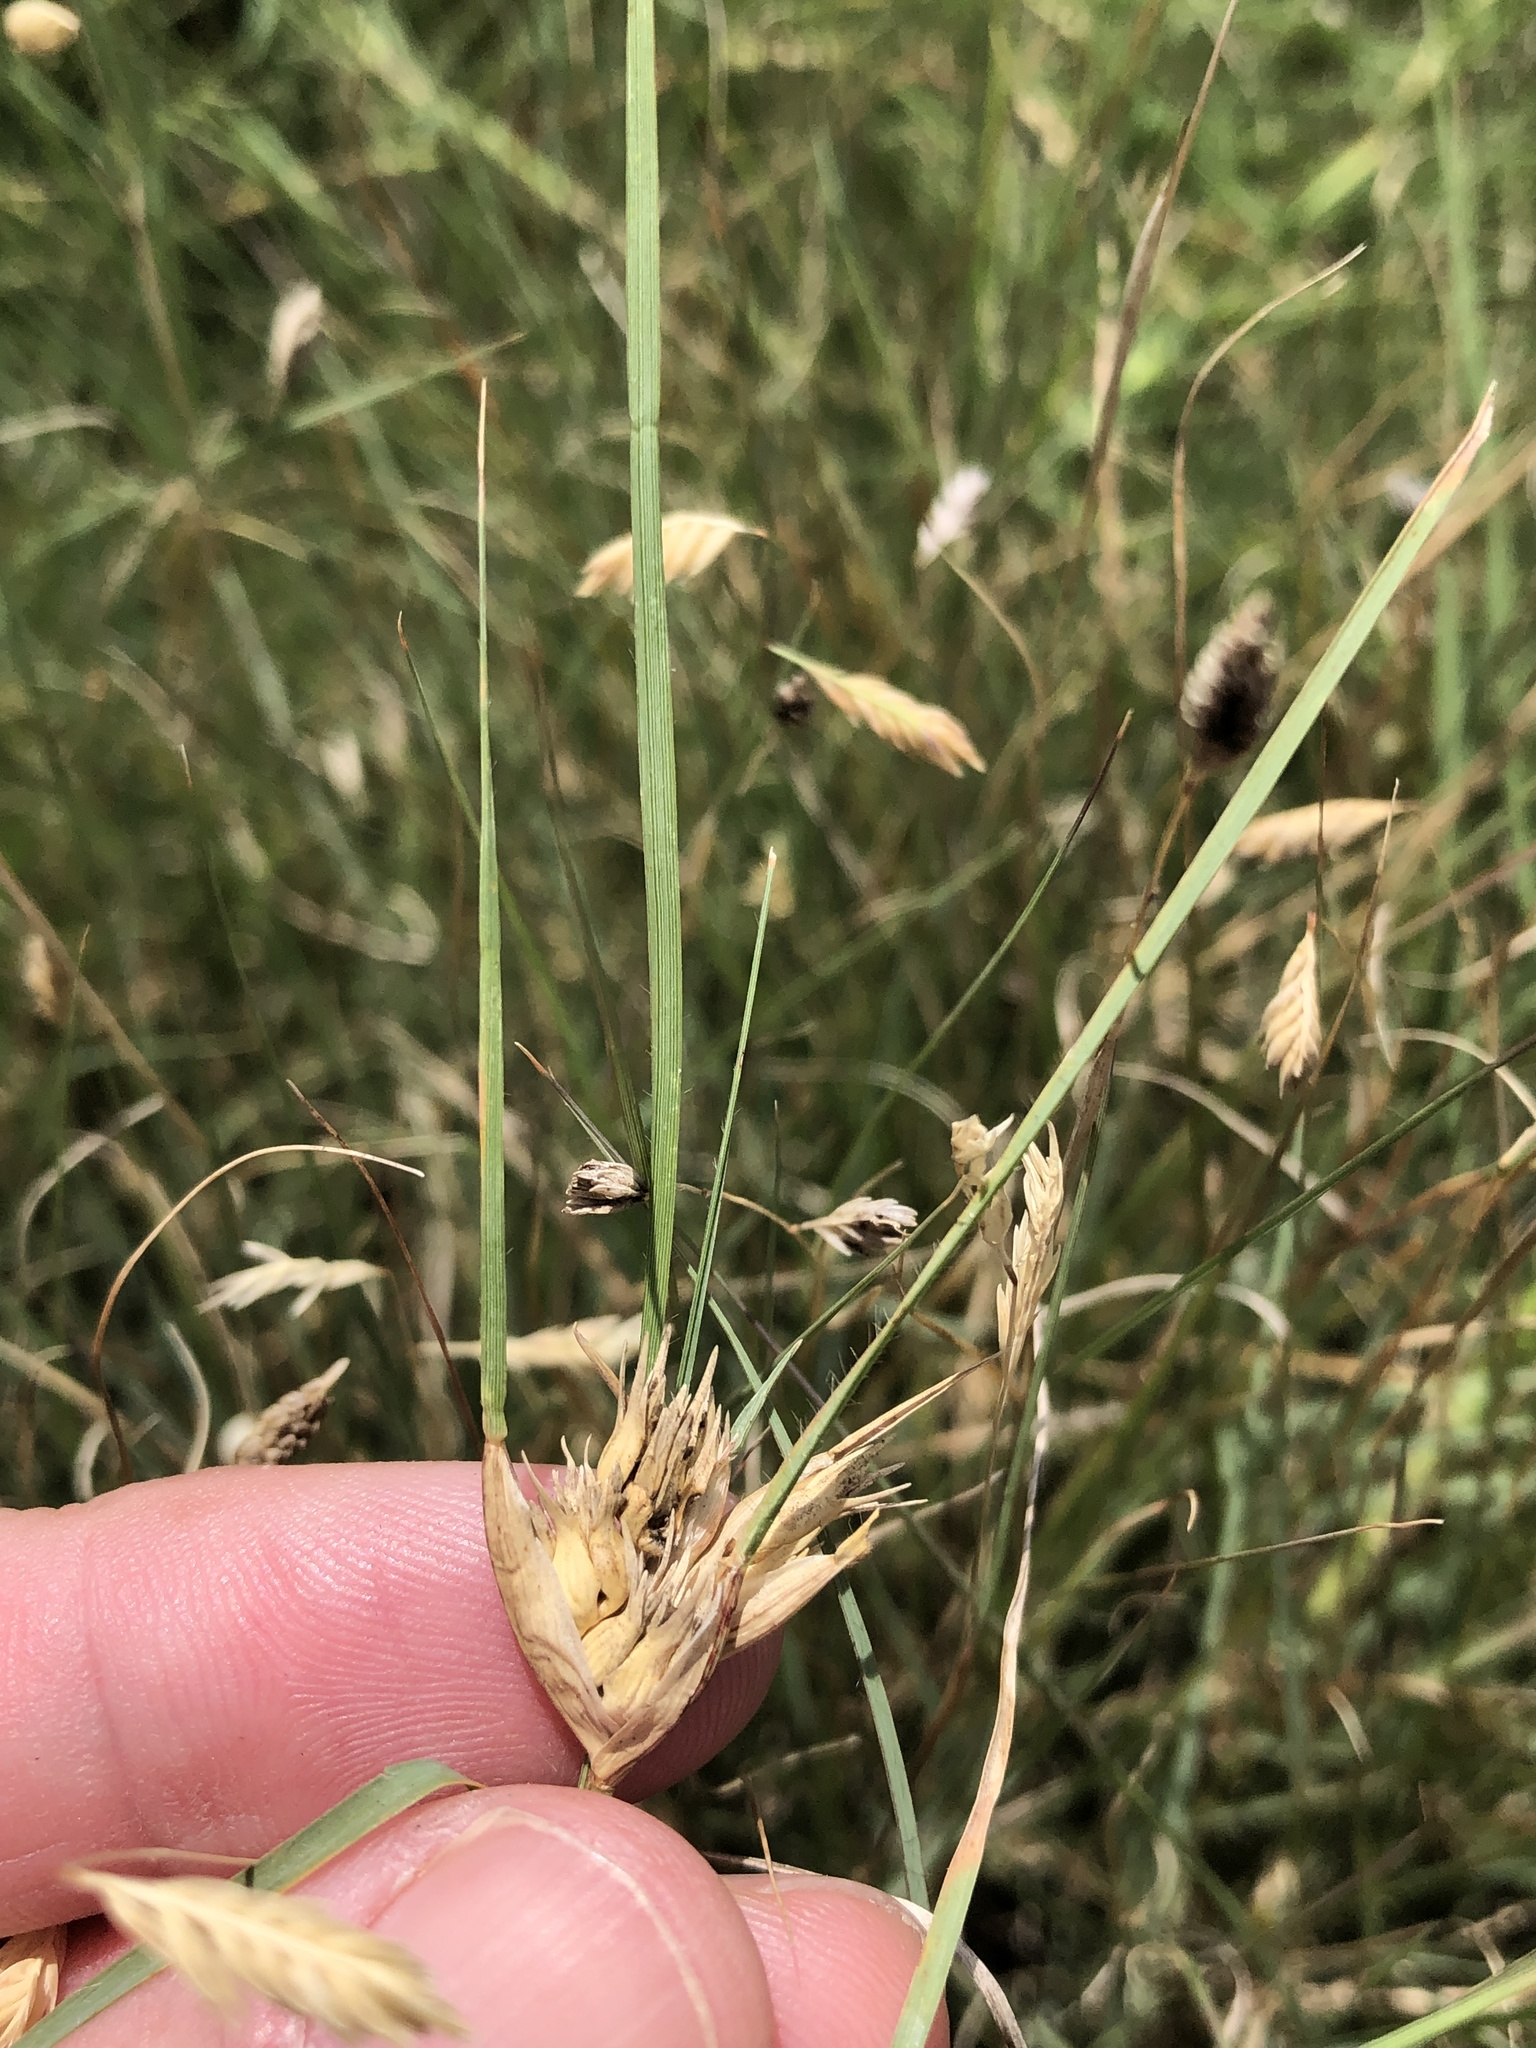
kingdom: Plantae
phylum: Tracheophyta
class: Liliopsida
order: Poales
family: Poaceae
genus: Bouteloua
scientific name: Bouteloua dactyloides
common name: Buffalo grass
